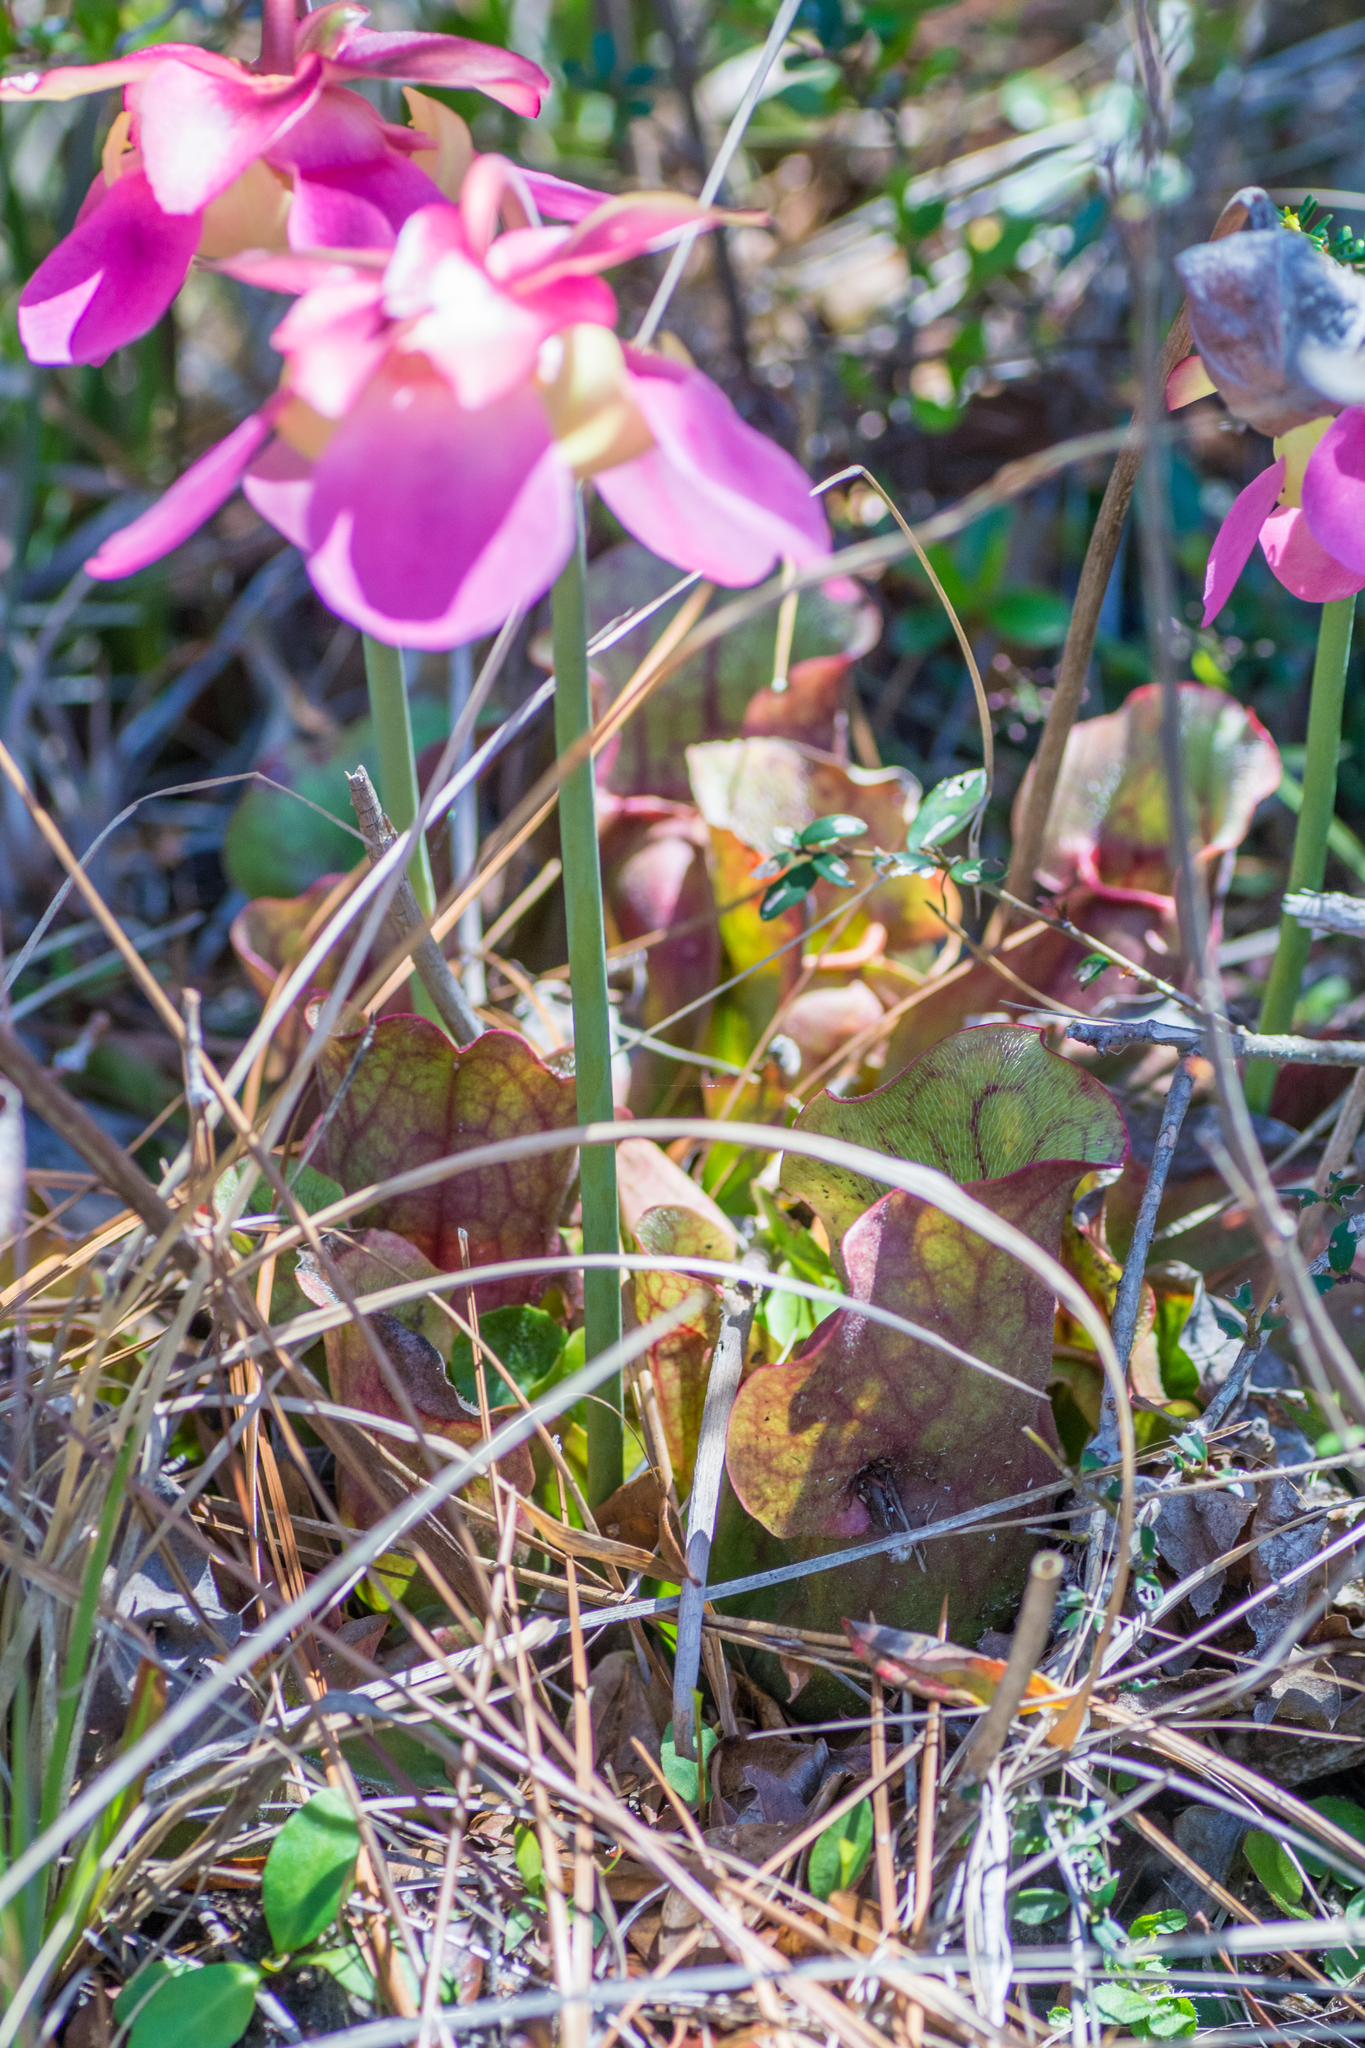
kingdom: Plantae
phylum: Tracheophyta
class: Magnoliopsida
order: Ericales
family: Sarraceniaceae
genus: Sarracenia
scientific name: Sarracenia rosea
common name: Pink pitcherplant
